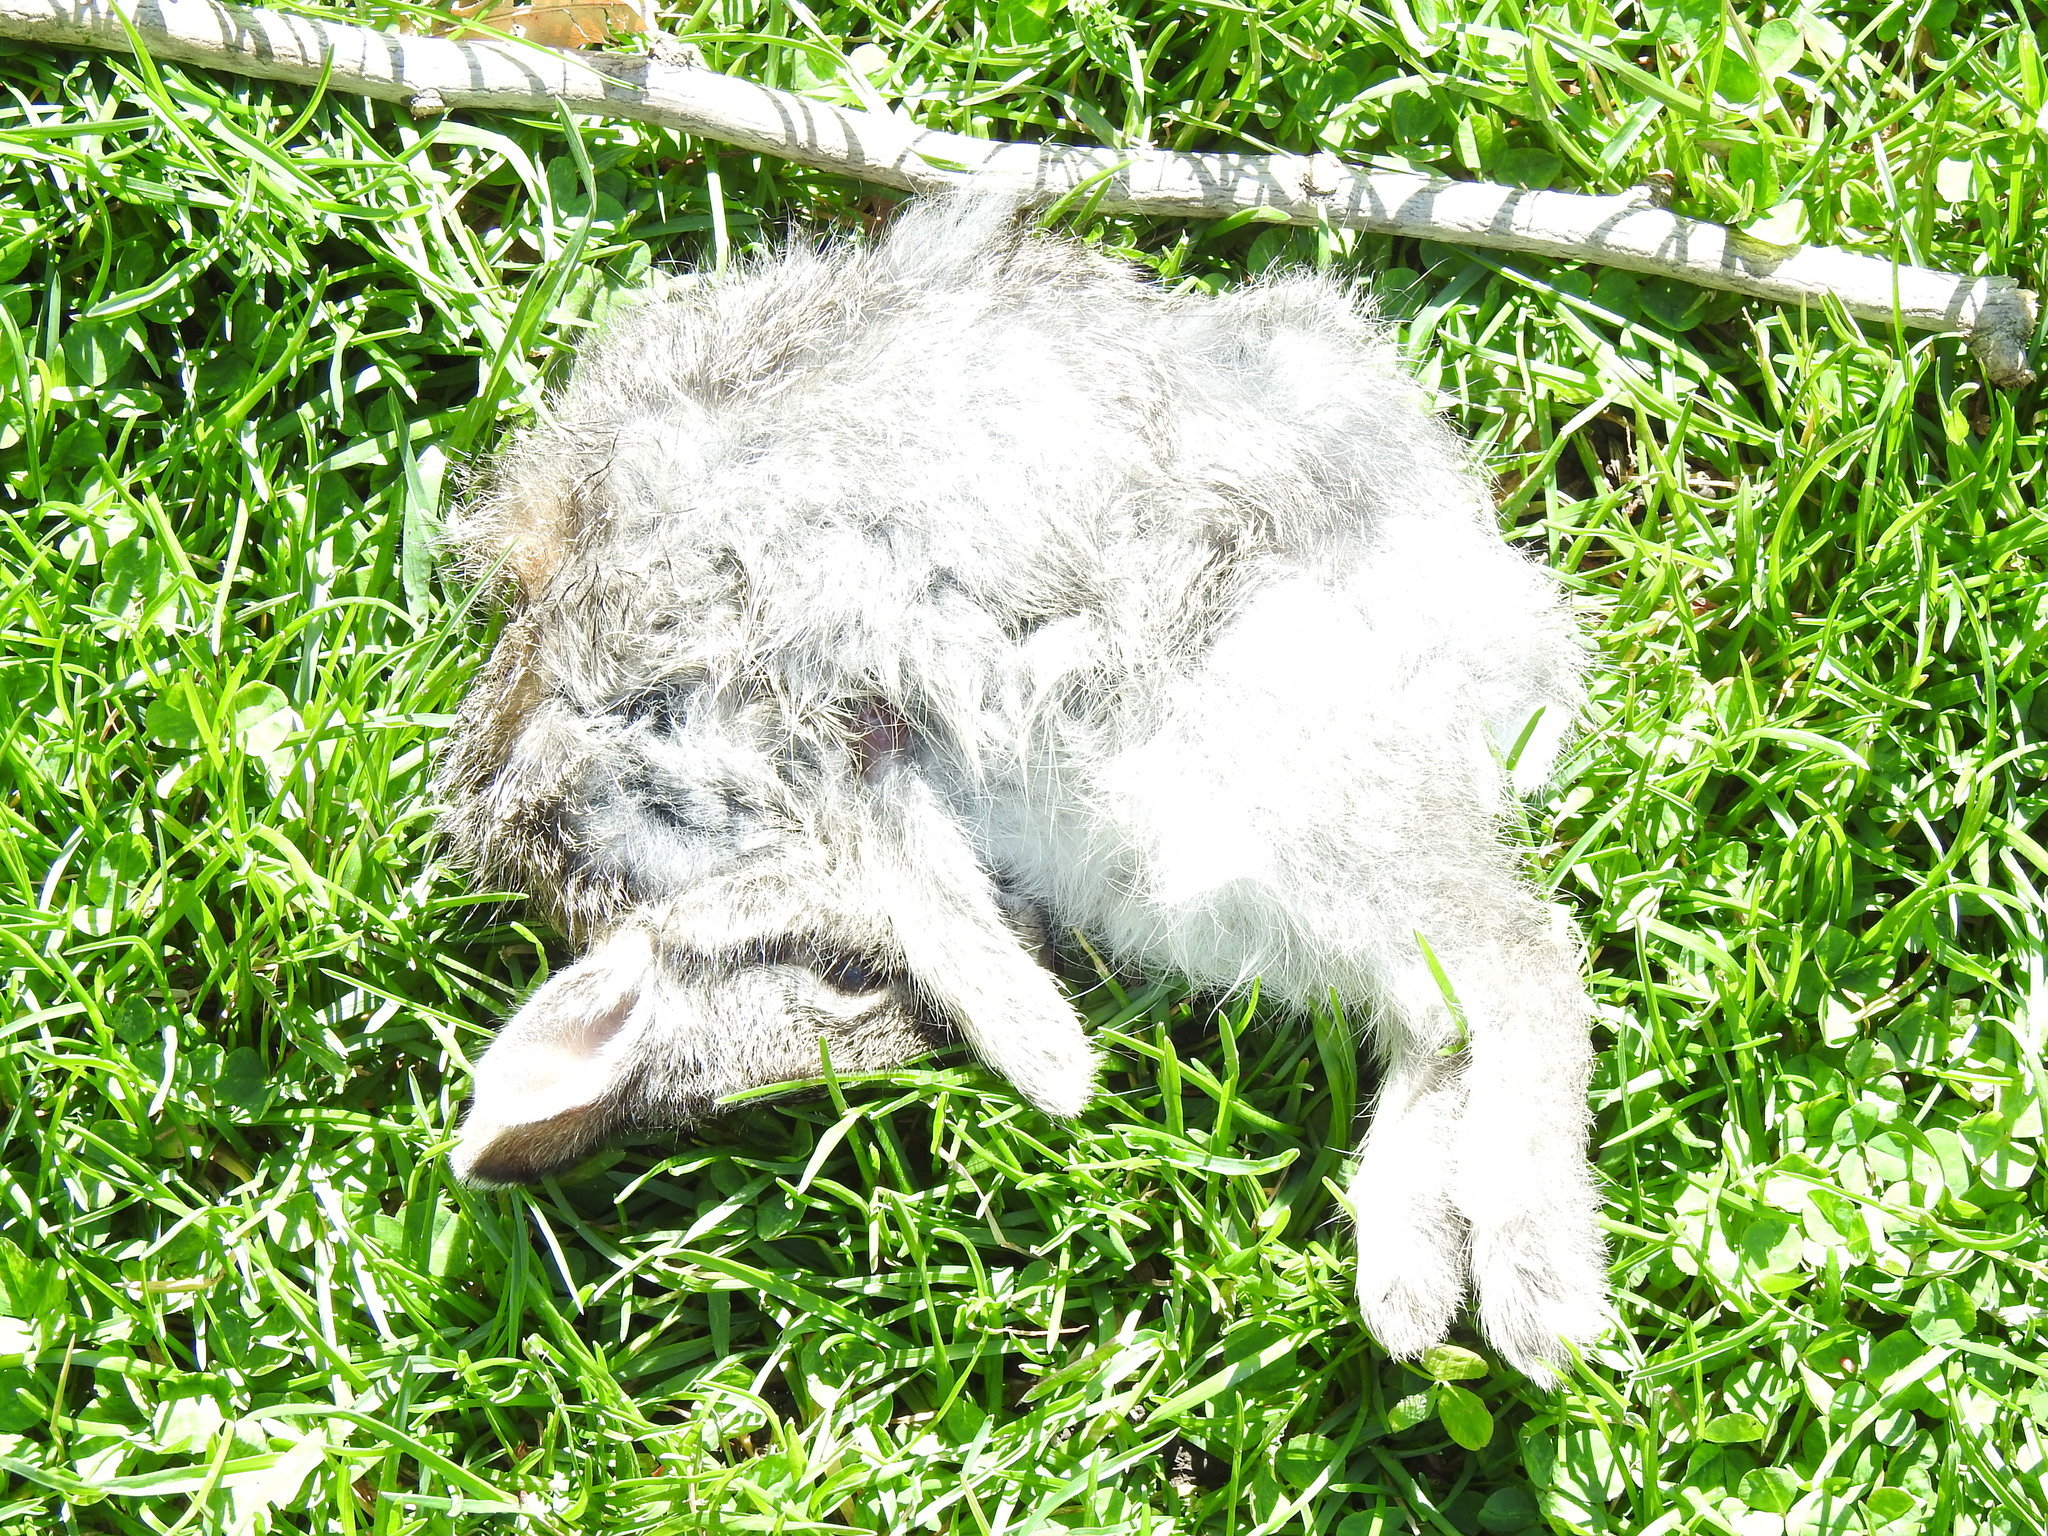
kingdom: Animalia
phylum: Chordata
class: Mammalia
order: Lagomorpha
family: Leporidae
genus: Sylvilagus
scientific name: Sylvilagus floridanus
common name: Eastern cottontail
